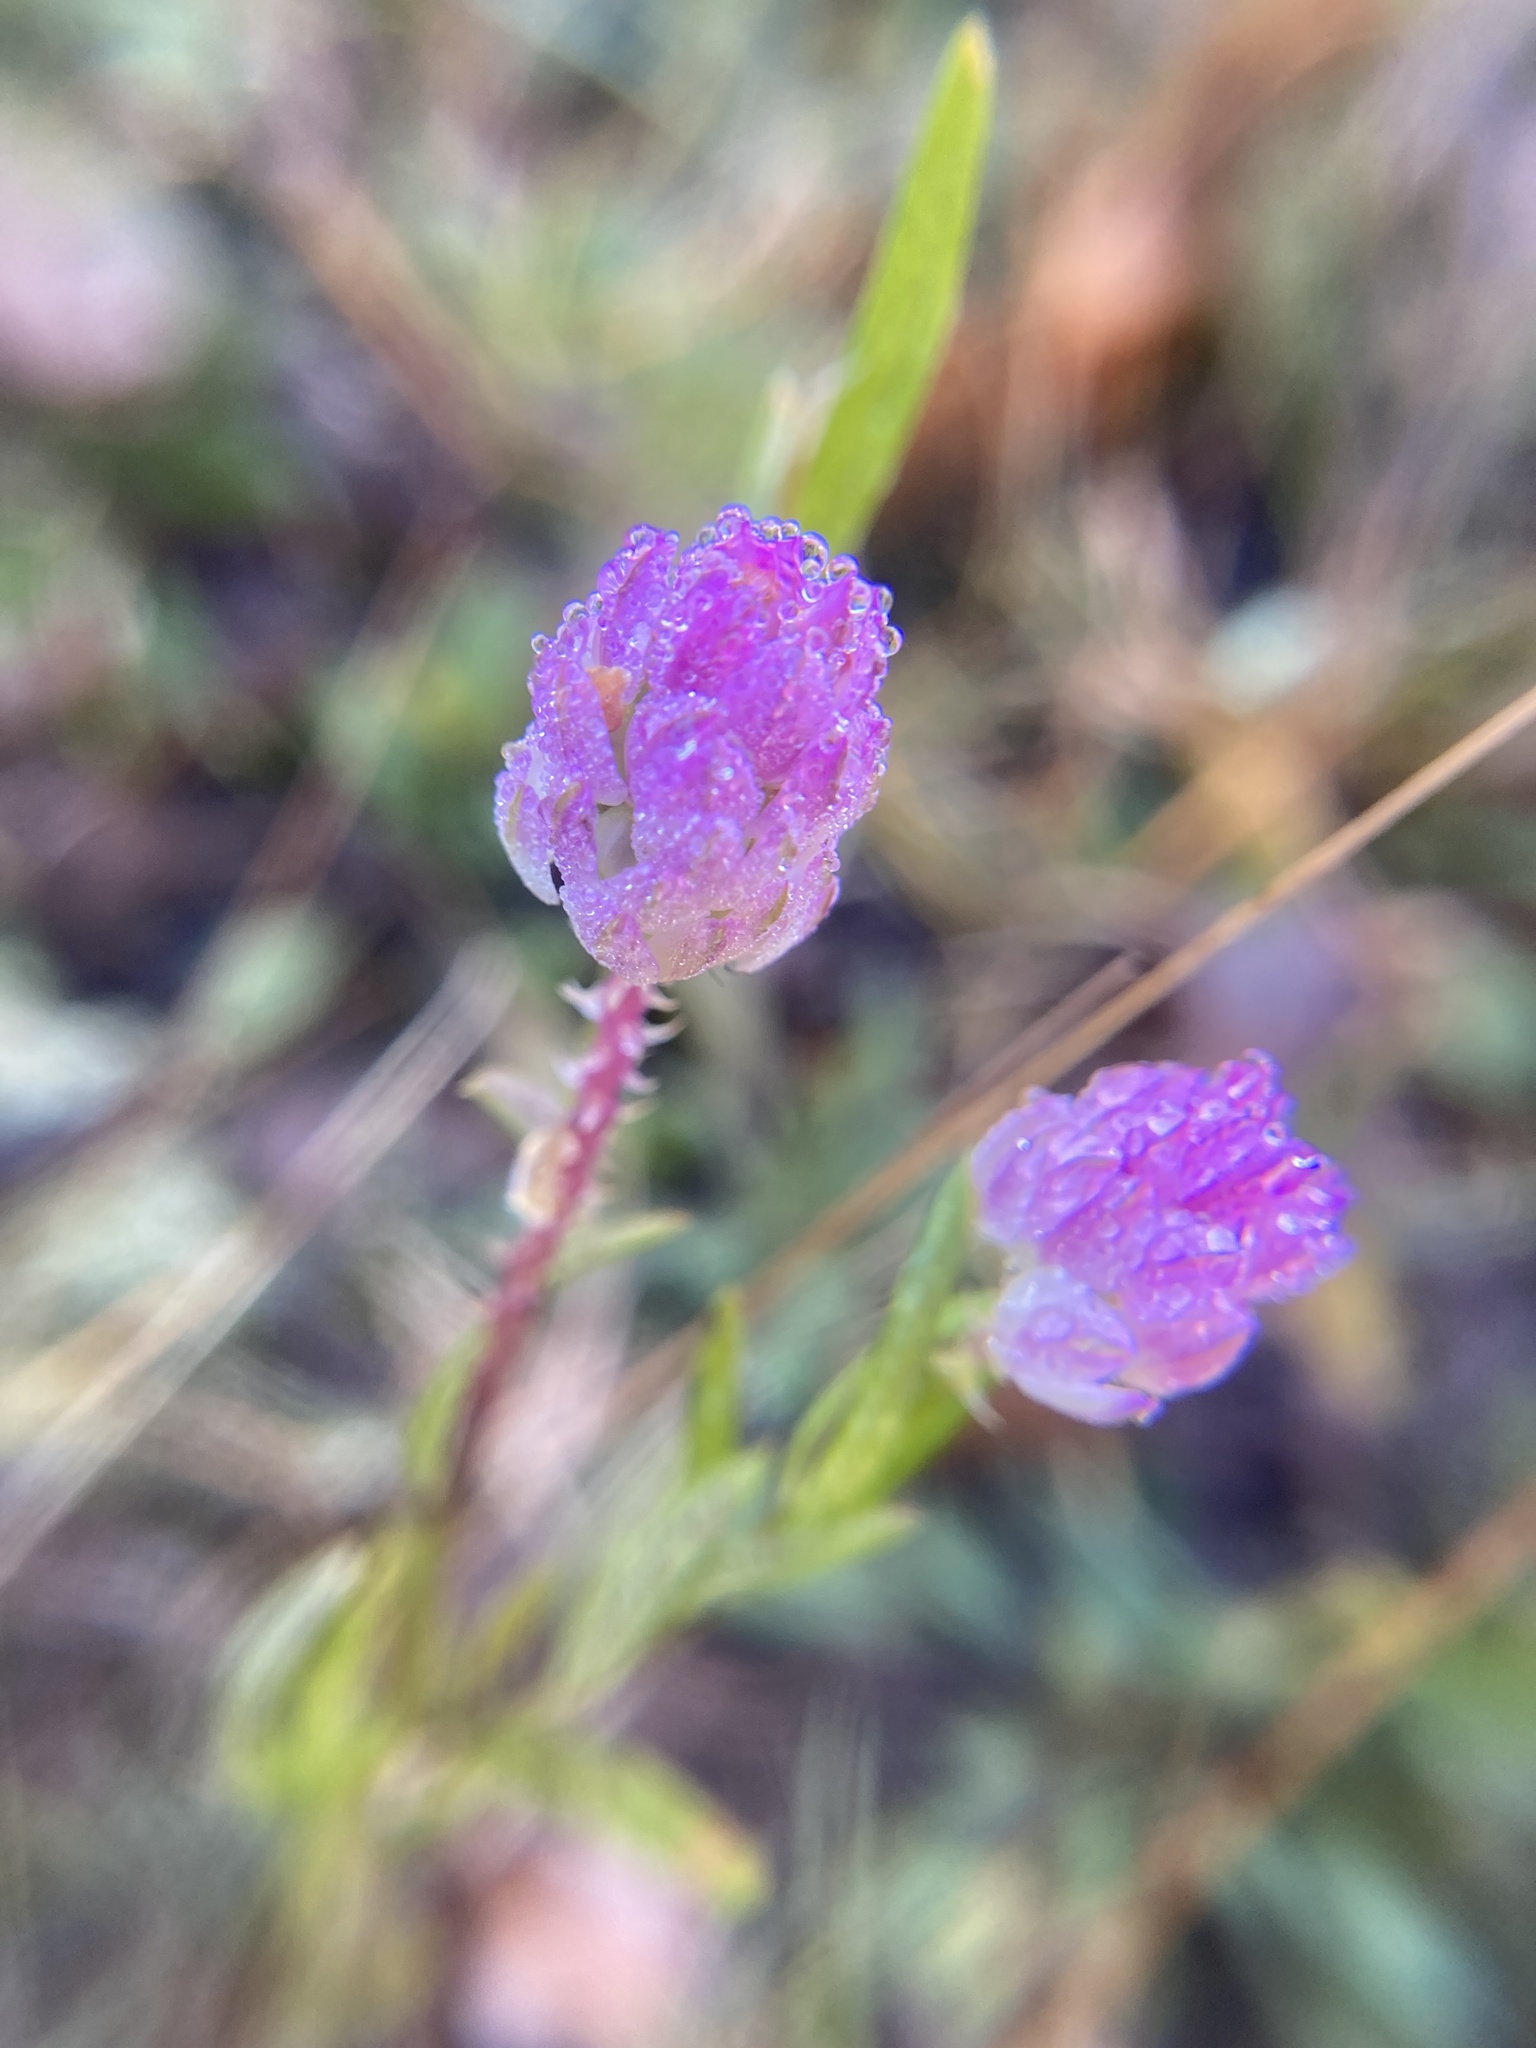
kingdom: Plantae
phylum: Tracheophyta
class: Magnoliopsida
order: Fabales
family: Polygalaceae
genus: Polygala
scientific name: Polygala sanguinea
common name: Blood milkwort
